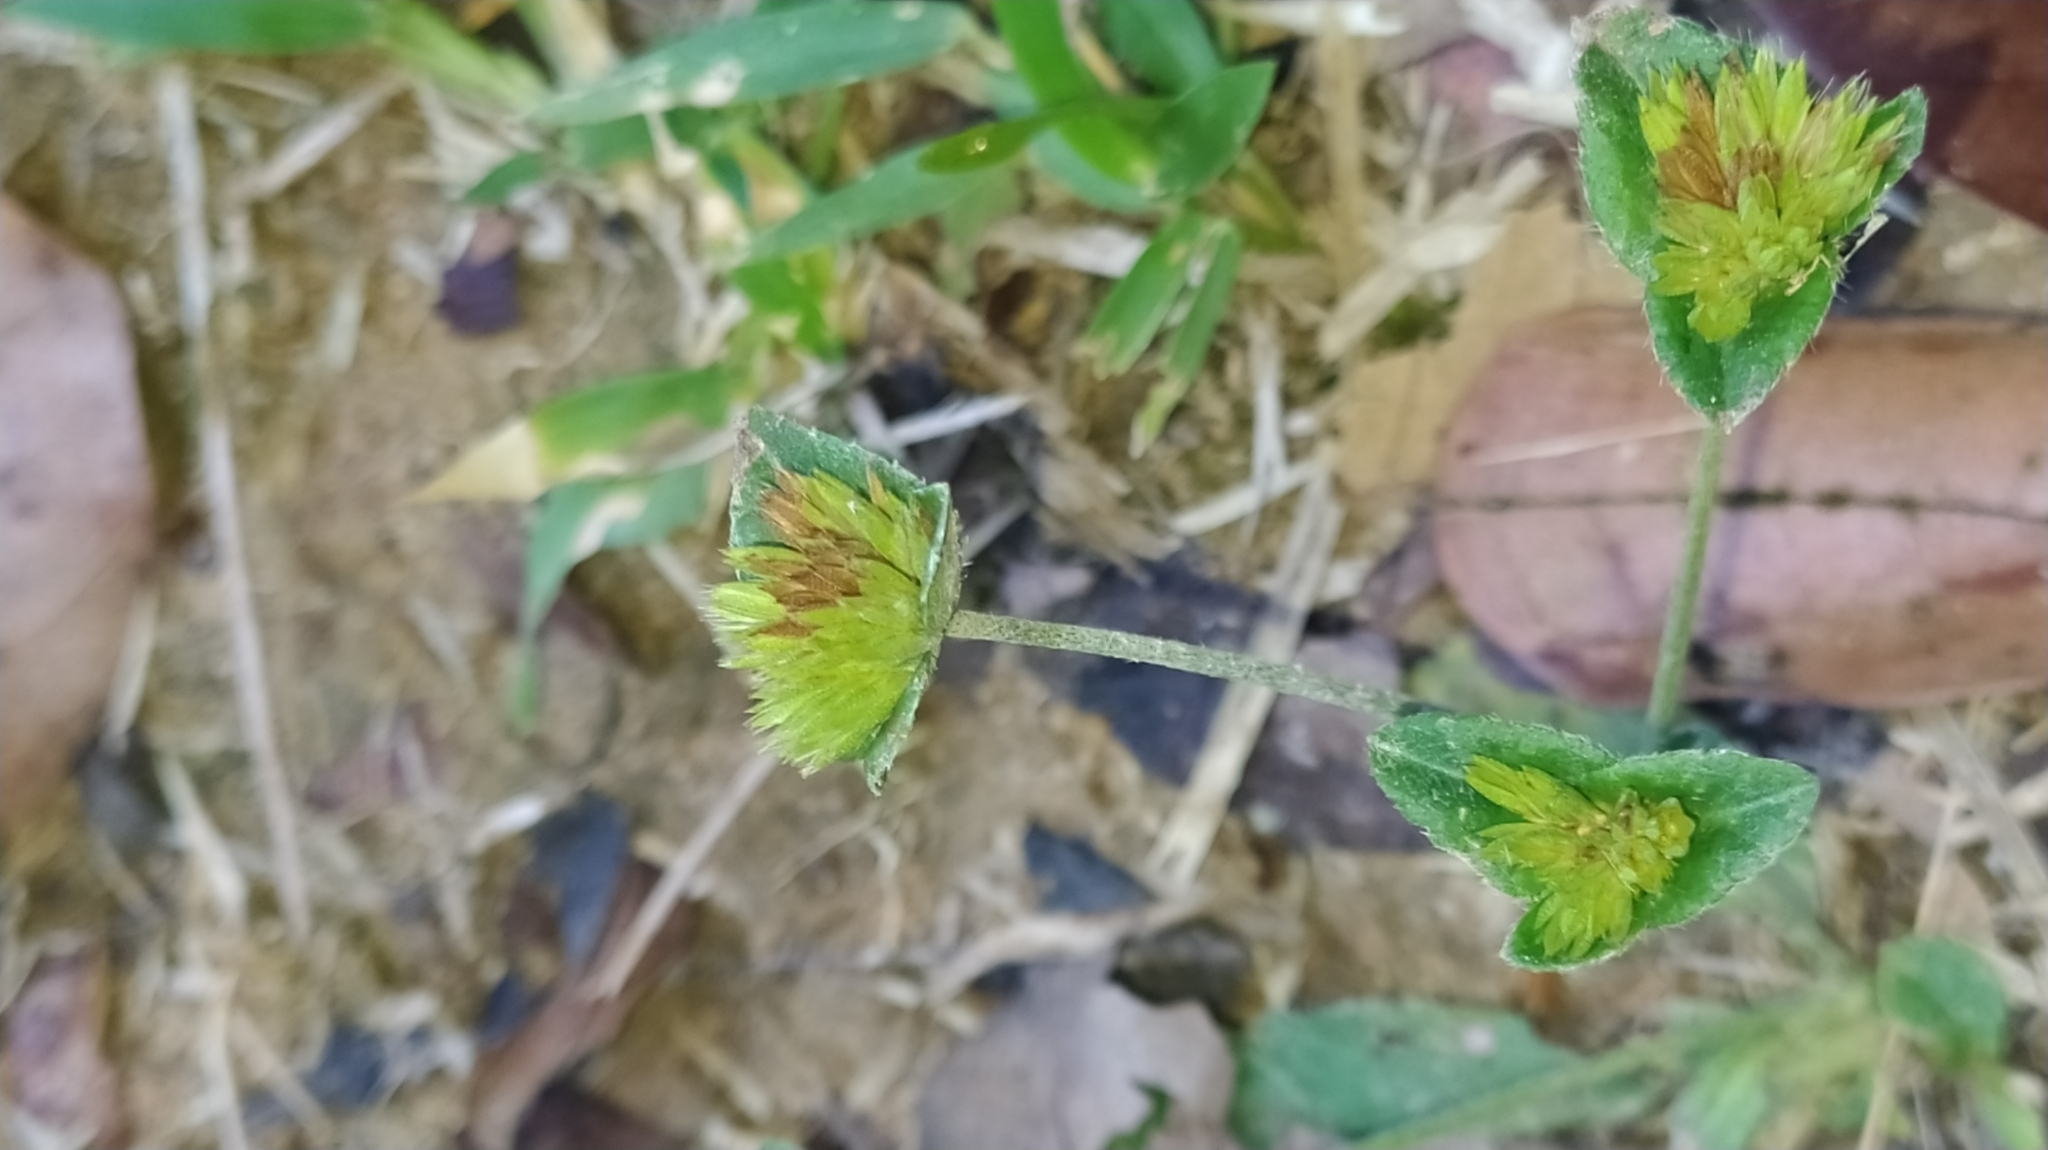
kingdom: Plantae
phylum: Tracheophyta
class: Magnoliopsida
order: Asterales
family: Asteraceae
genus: Elephantopus
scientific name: Elephantopus mollis
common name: Soft elephantsfoot
